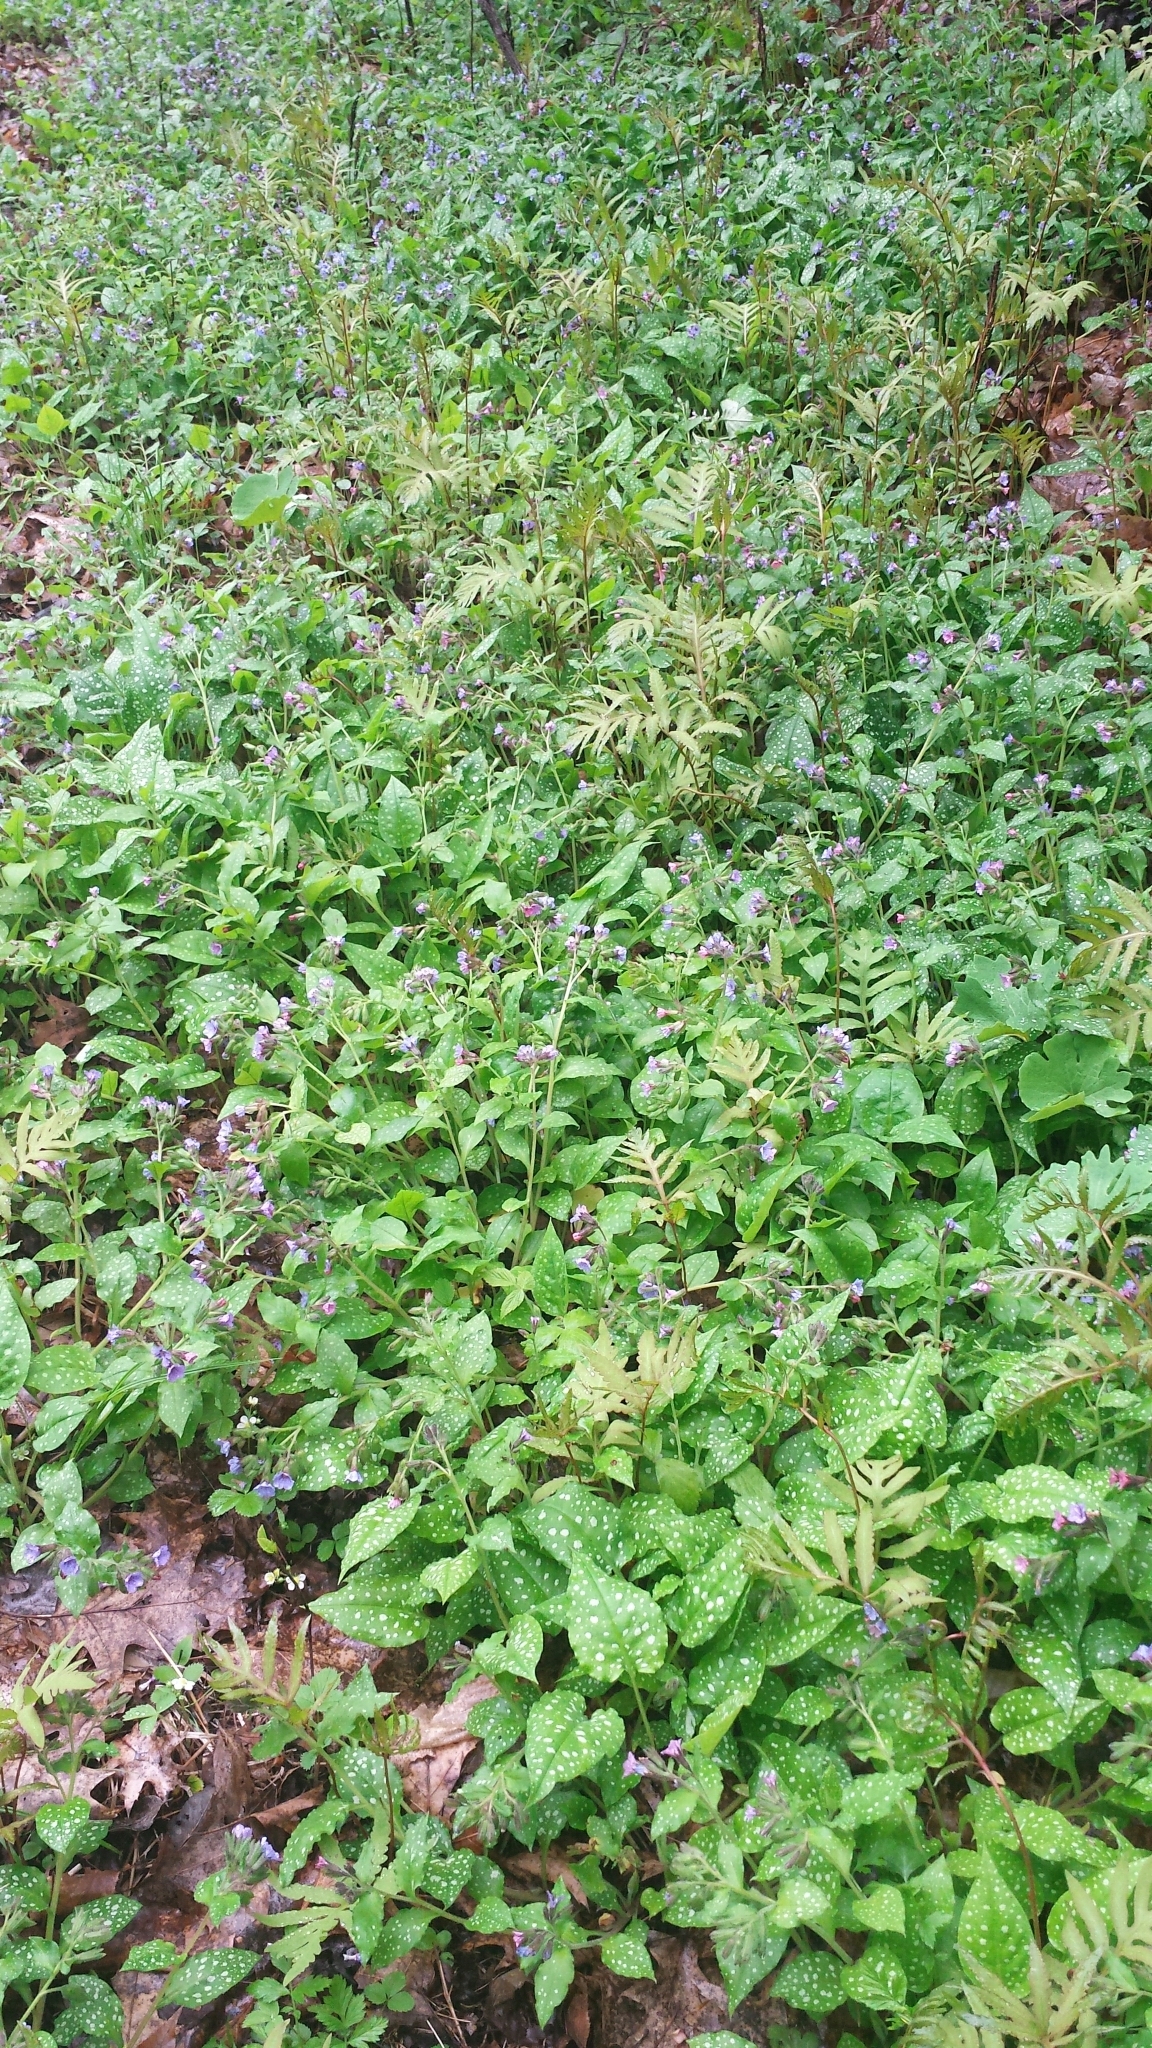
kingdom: Plantae
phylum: Tracheophyta
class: Magnoliopsida
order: Boraginales
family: Boraginaceae
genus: Pulmonaria
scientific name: Pulmonaria officinalis
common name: Lungwort
